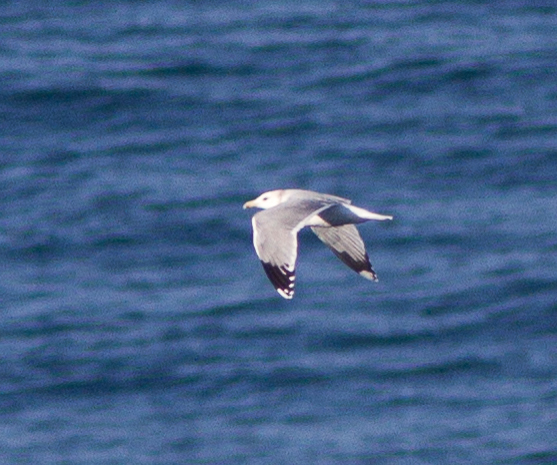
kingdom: Animalia
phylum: Chordata
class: Aves
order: Charadriiformes
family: Laridae
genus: Larus
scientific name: Larus californicus
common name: California gull
